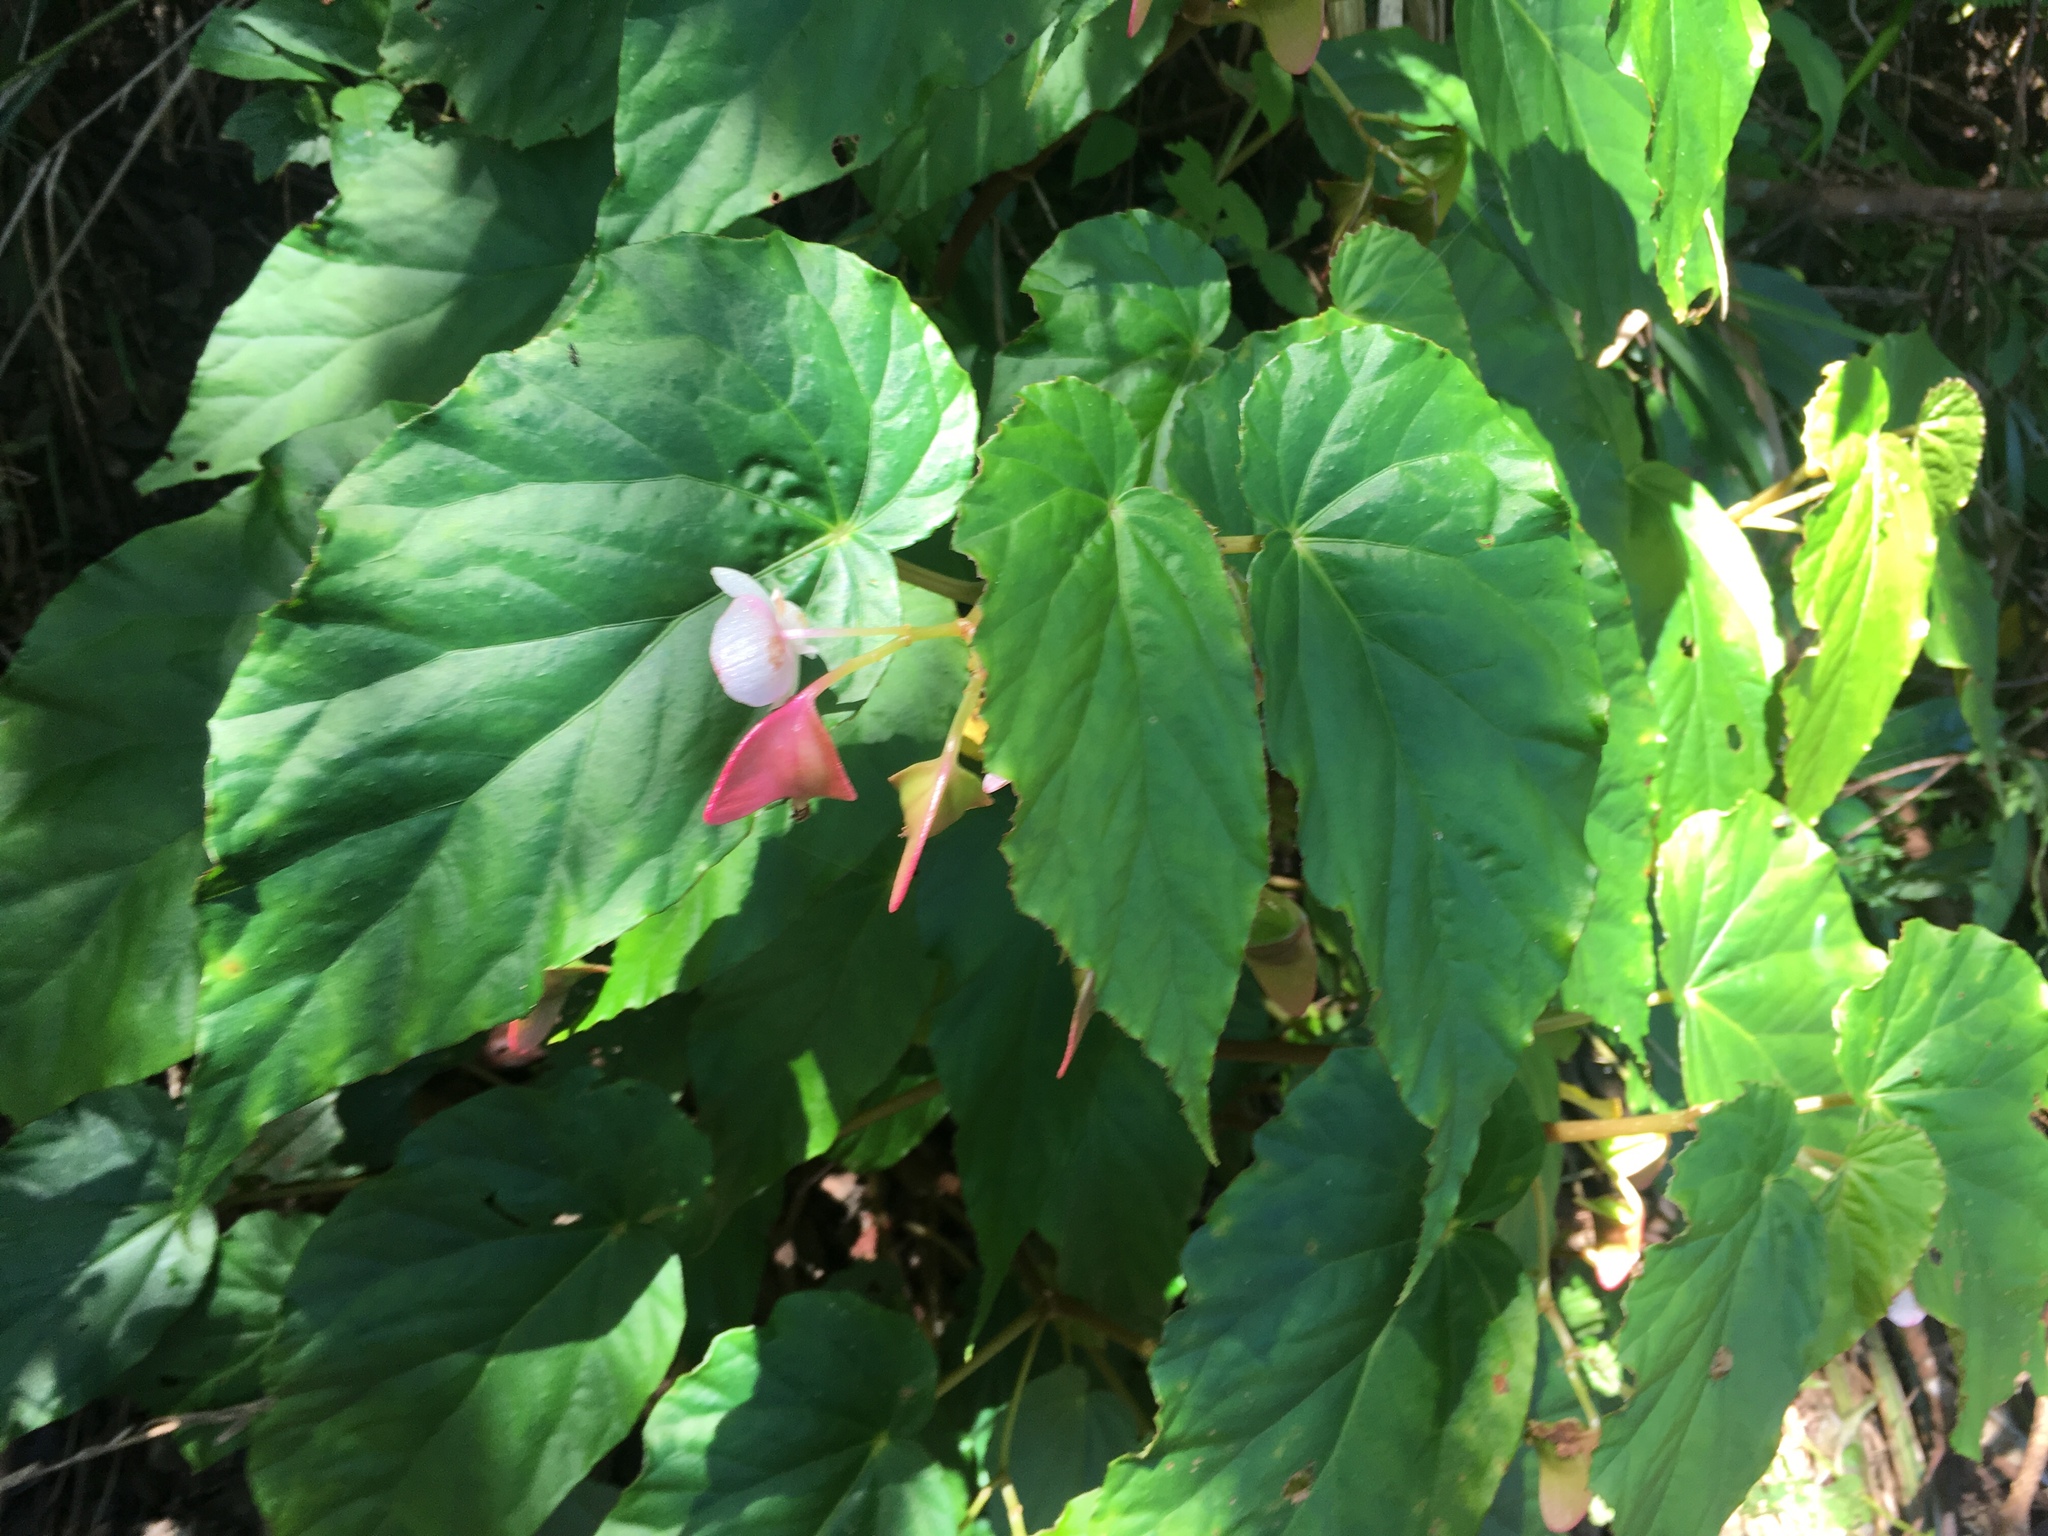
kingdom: Plantae
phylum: Tracheophyta
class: Magnoliopsida
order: Cucurbitales
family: Begoniaceae
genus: Begonia
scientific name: Begonia chuyunshanensis
